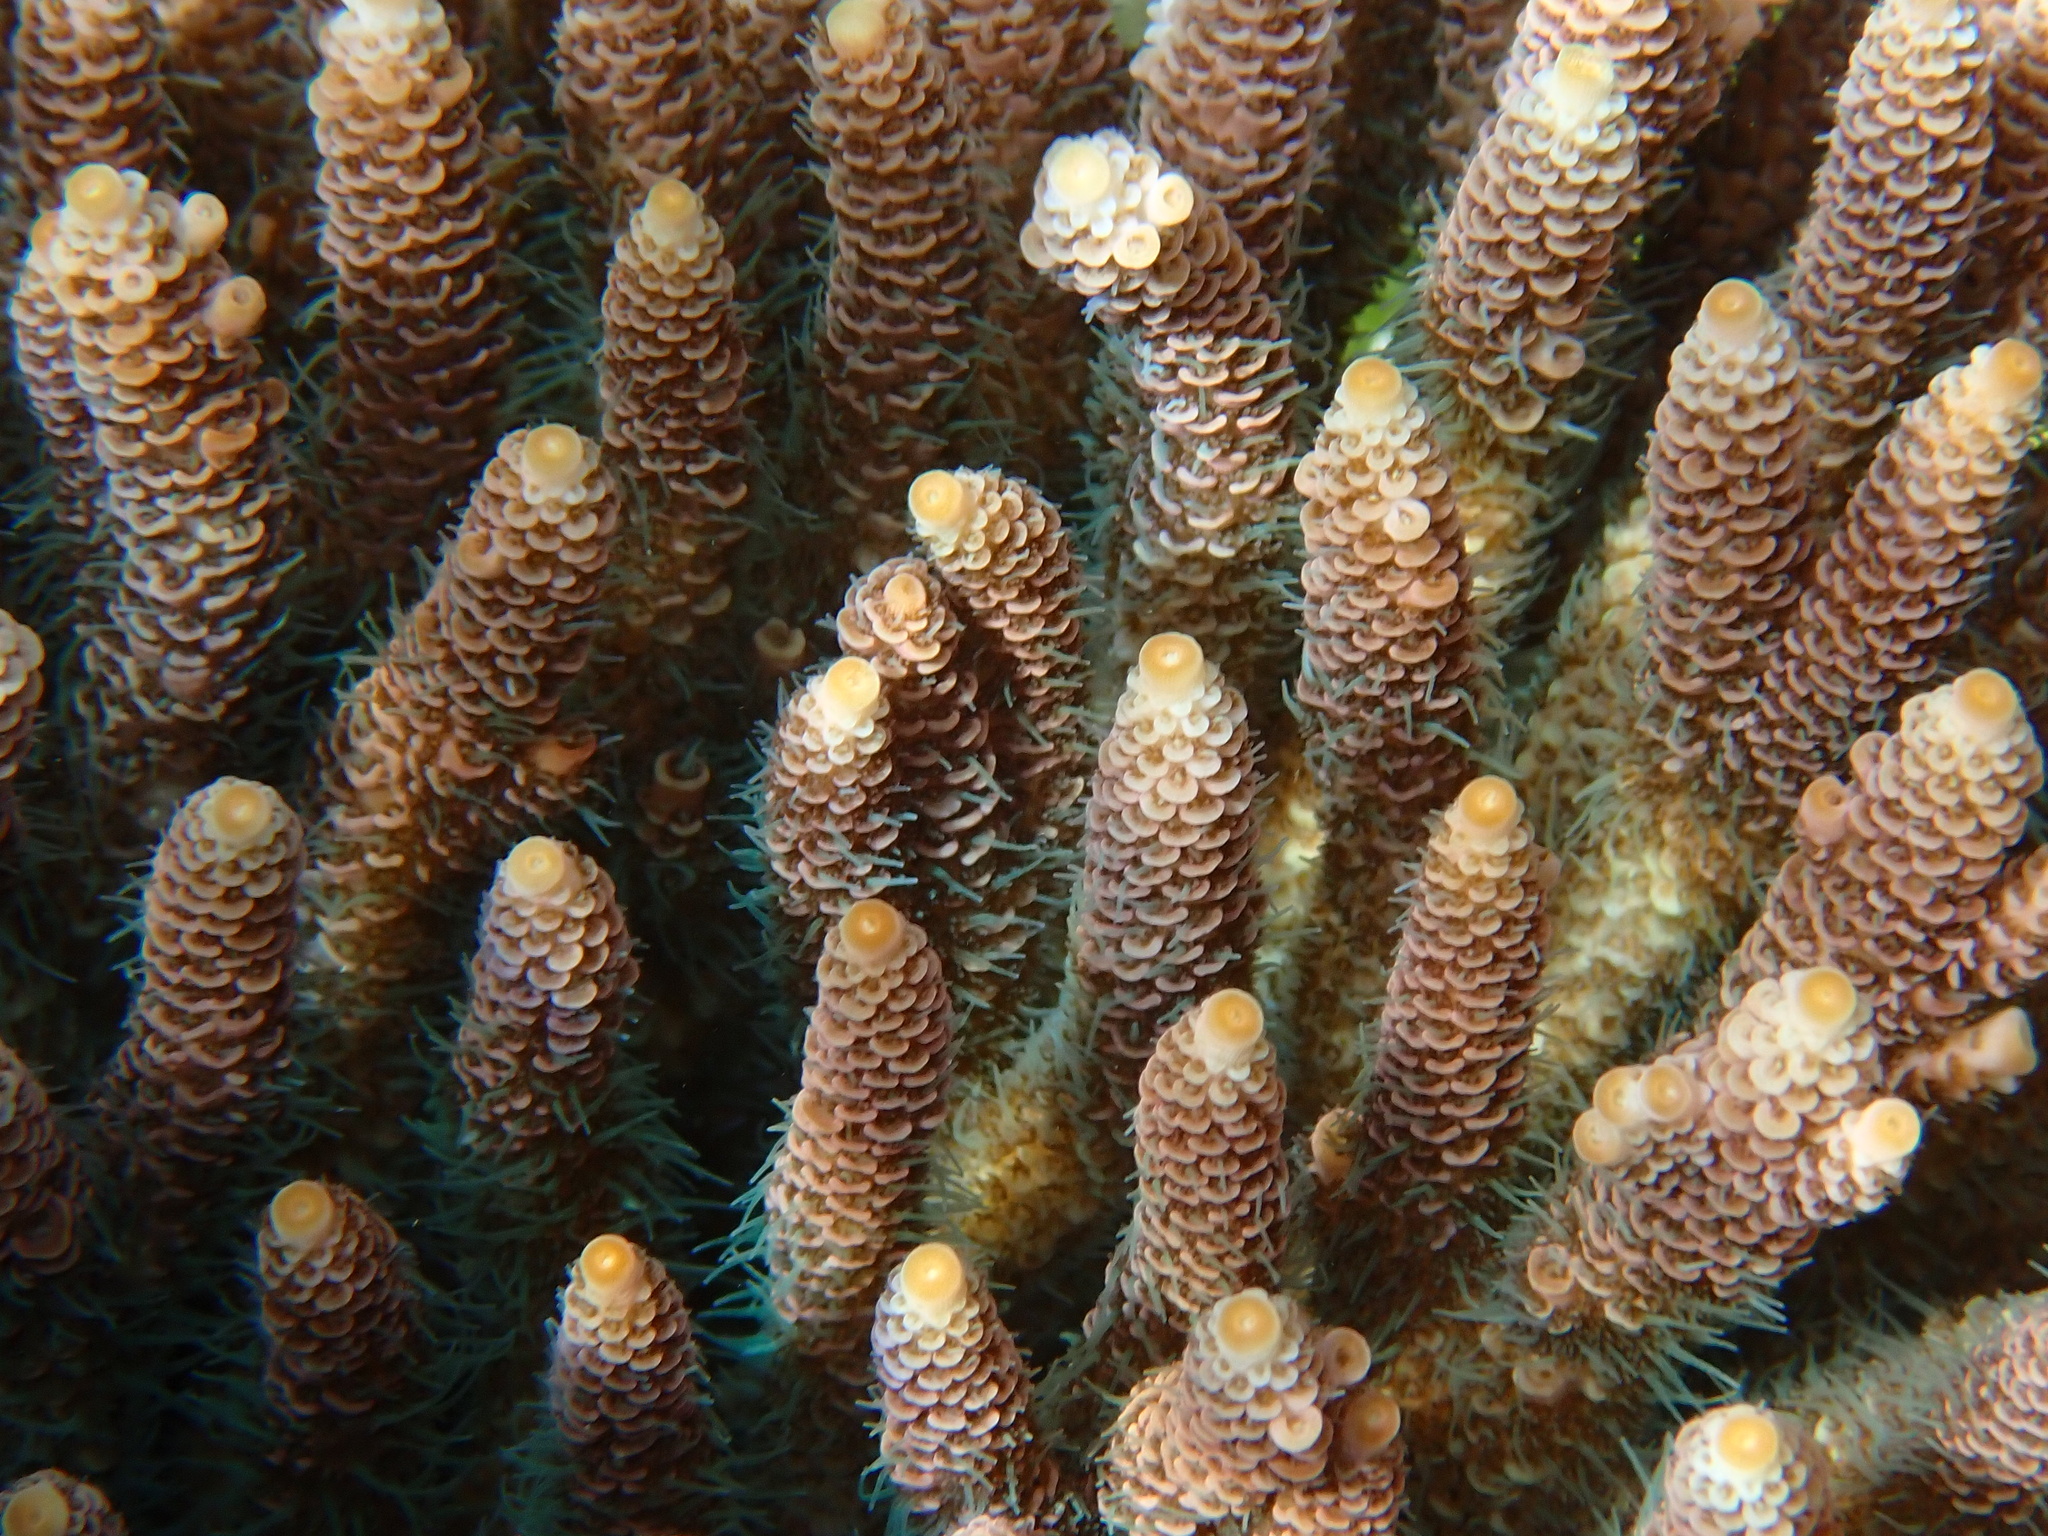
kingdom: Animalia
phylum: Cnidaria
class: Anthozoa
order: Scleractinia
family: Acroporidae
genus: Acropora
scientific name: Acropora millepora
